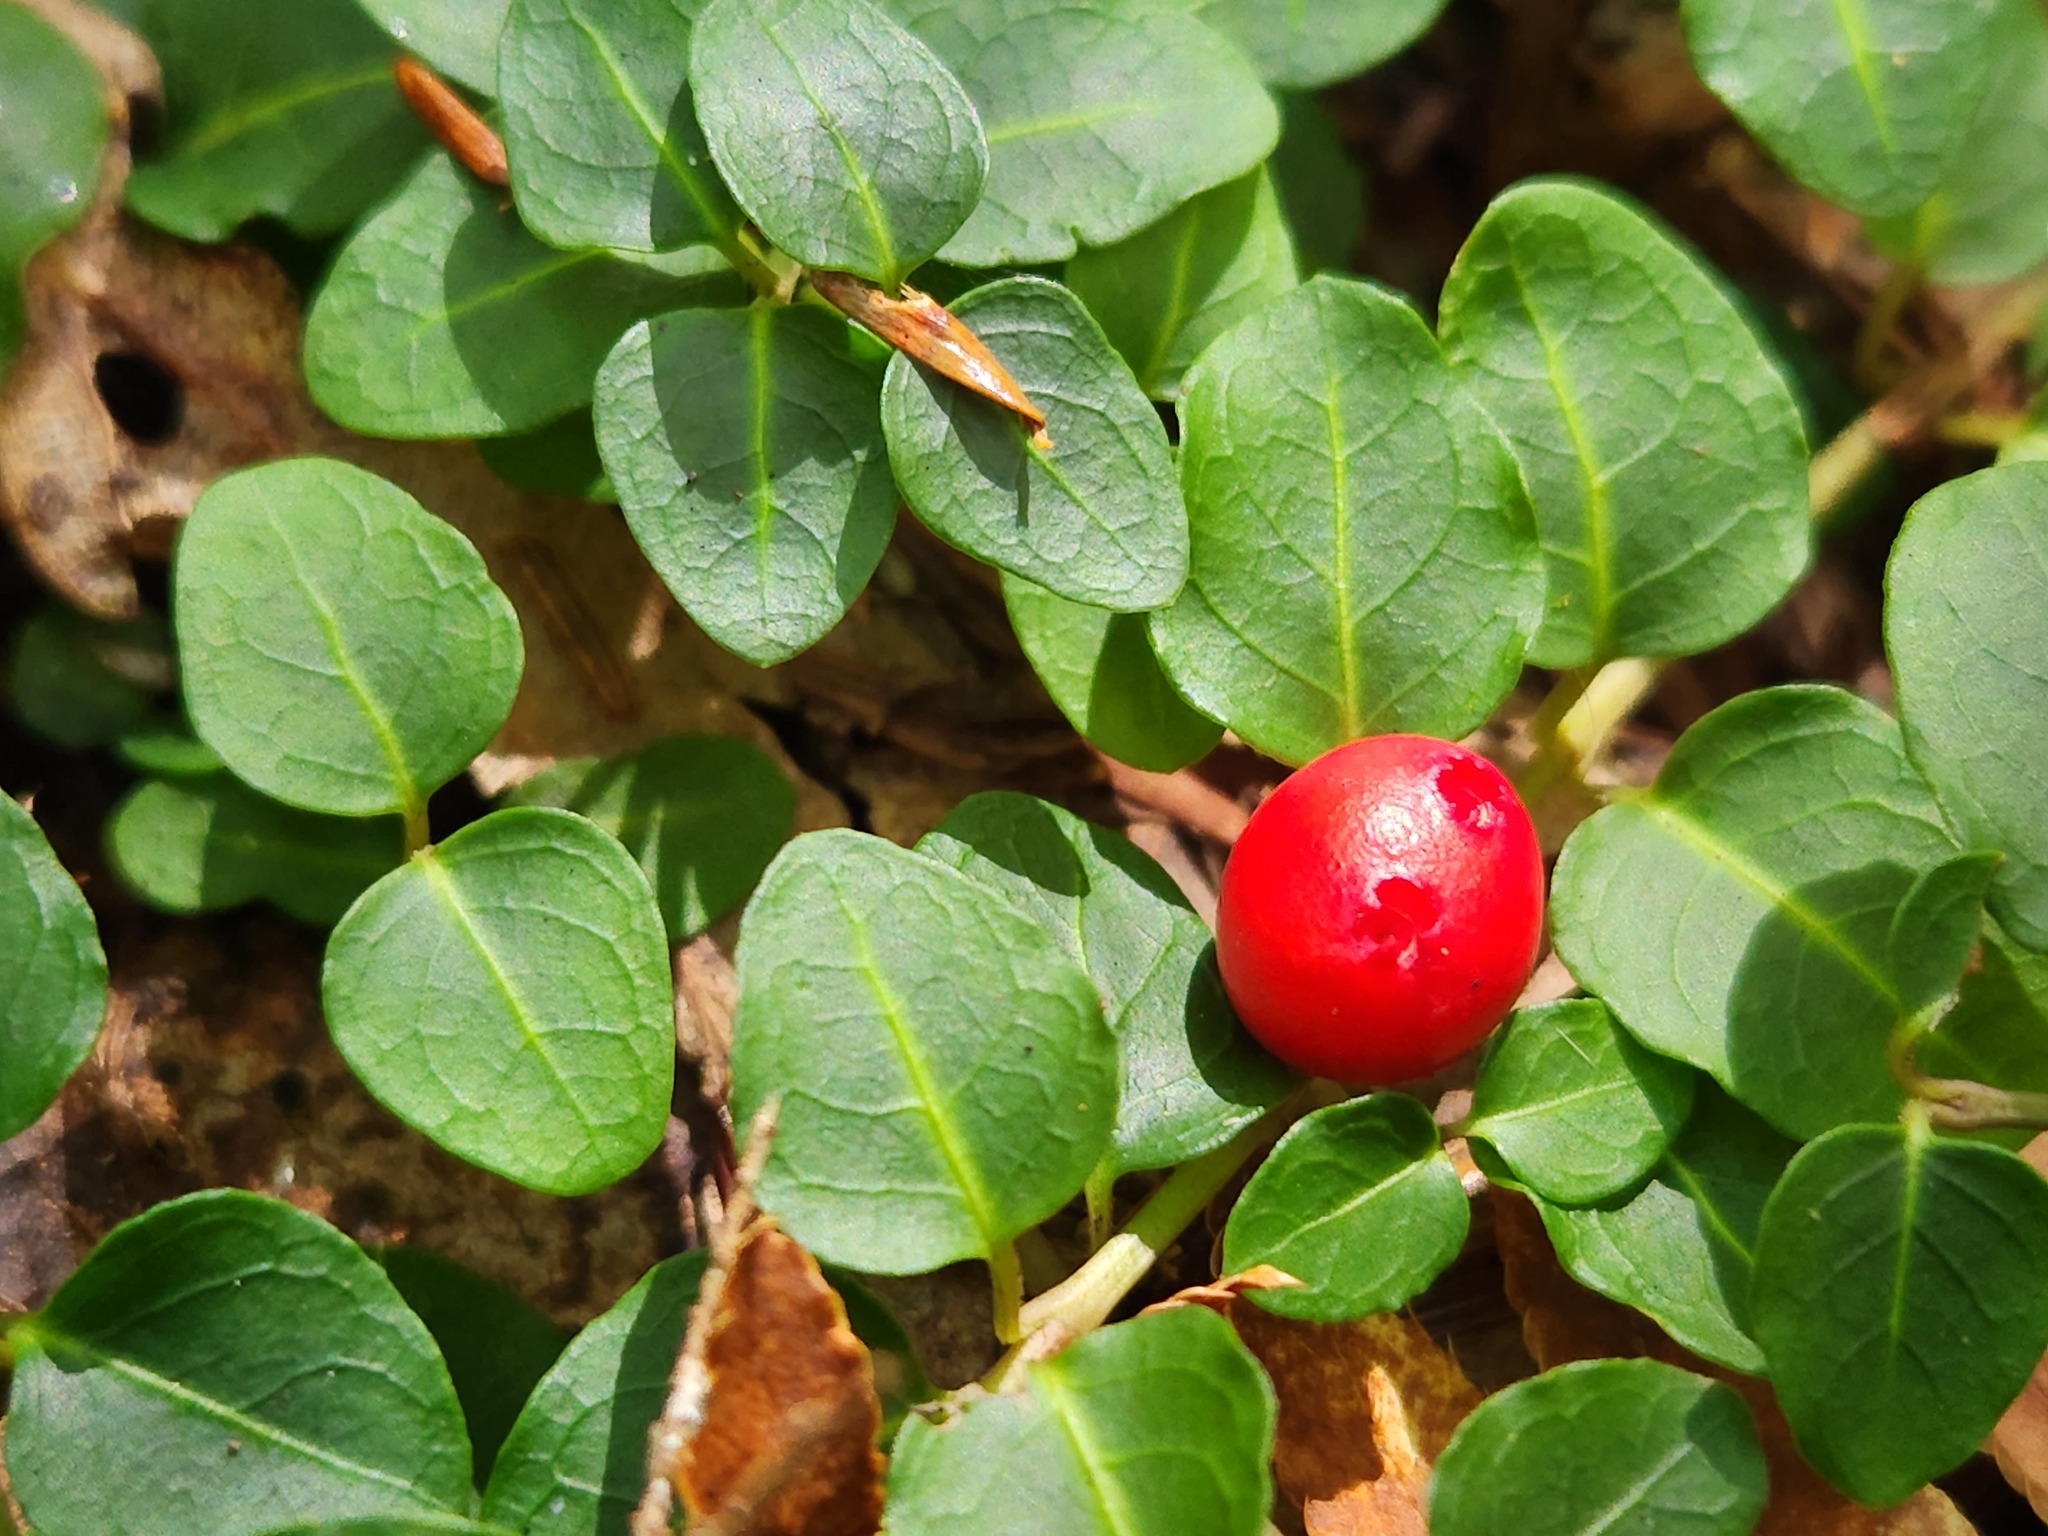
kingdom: Plantae
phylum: Tracheophyta
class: Magnoliopsida
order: Gentianales
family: Rubiaceae
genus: Mitchella
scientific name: Mitchella repens
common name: Partridge-berry
